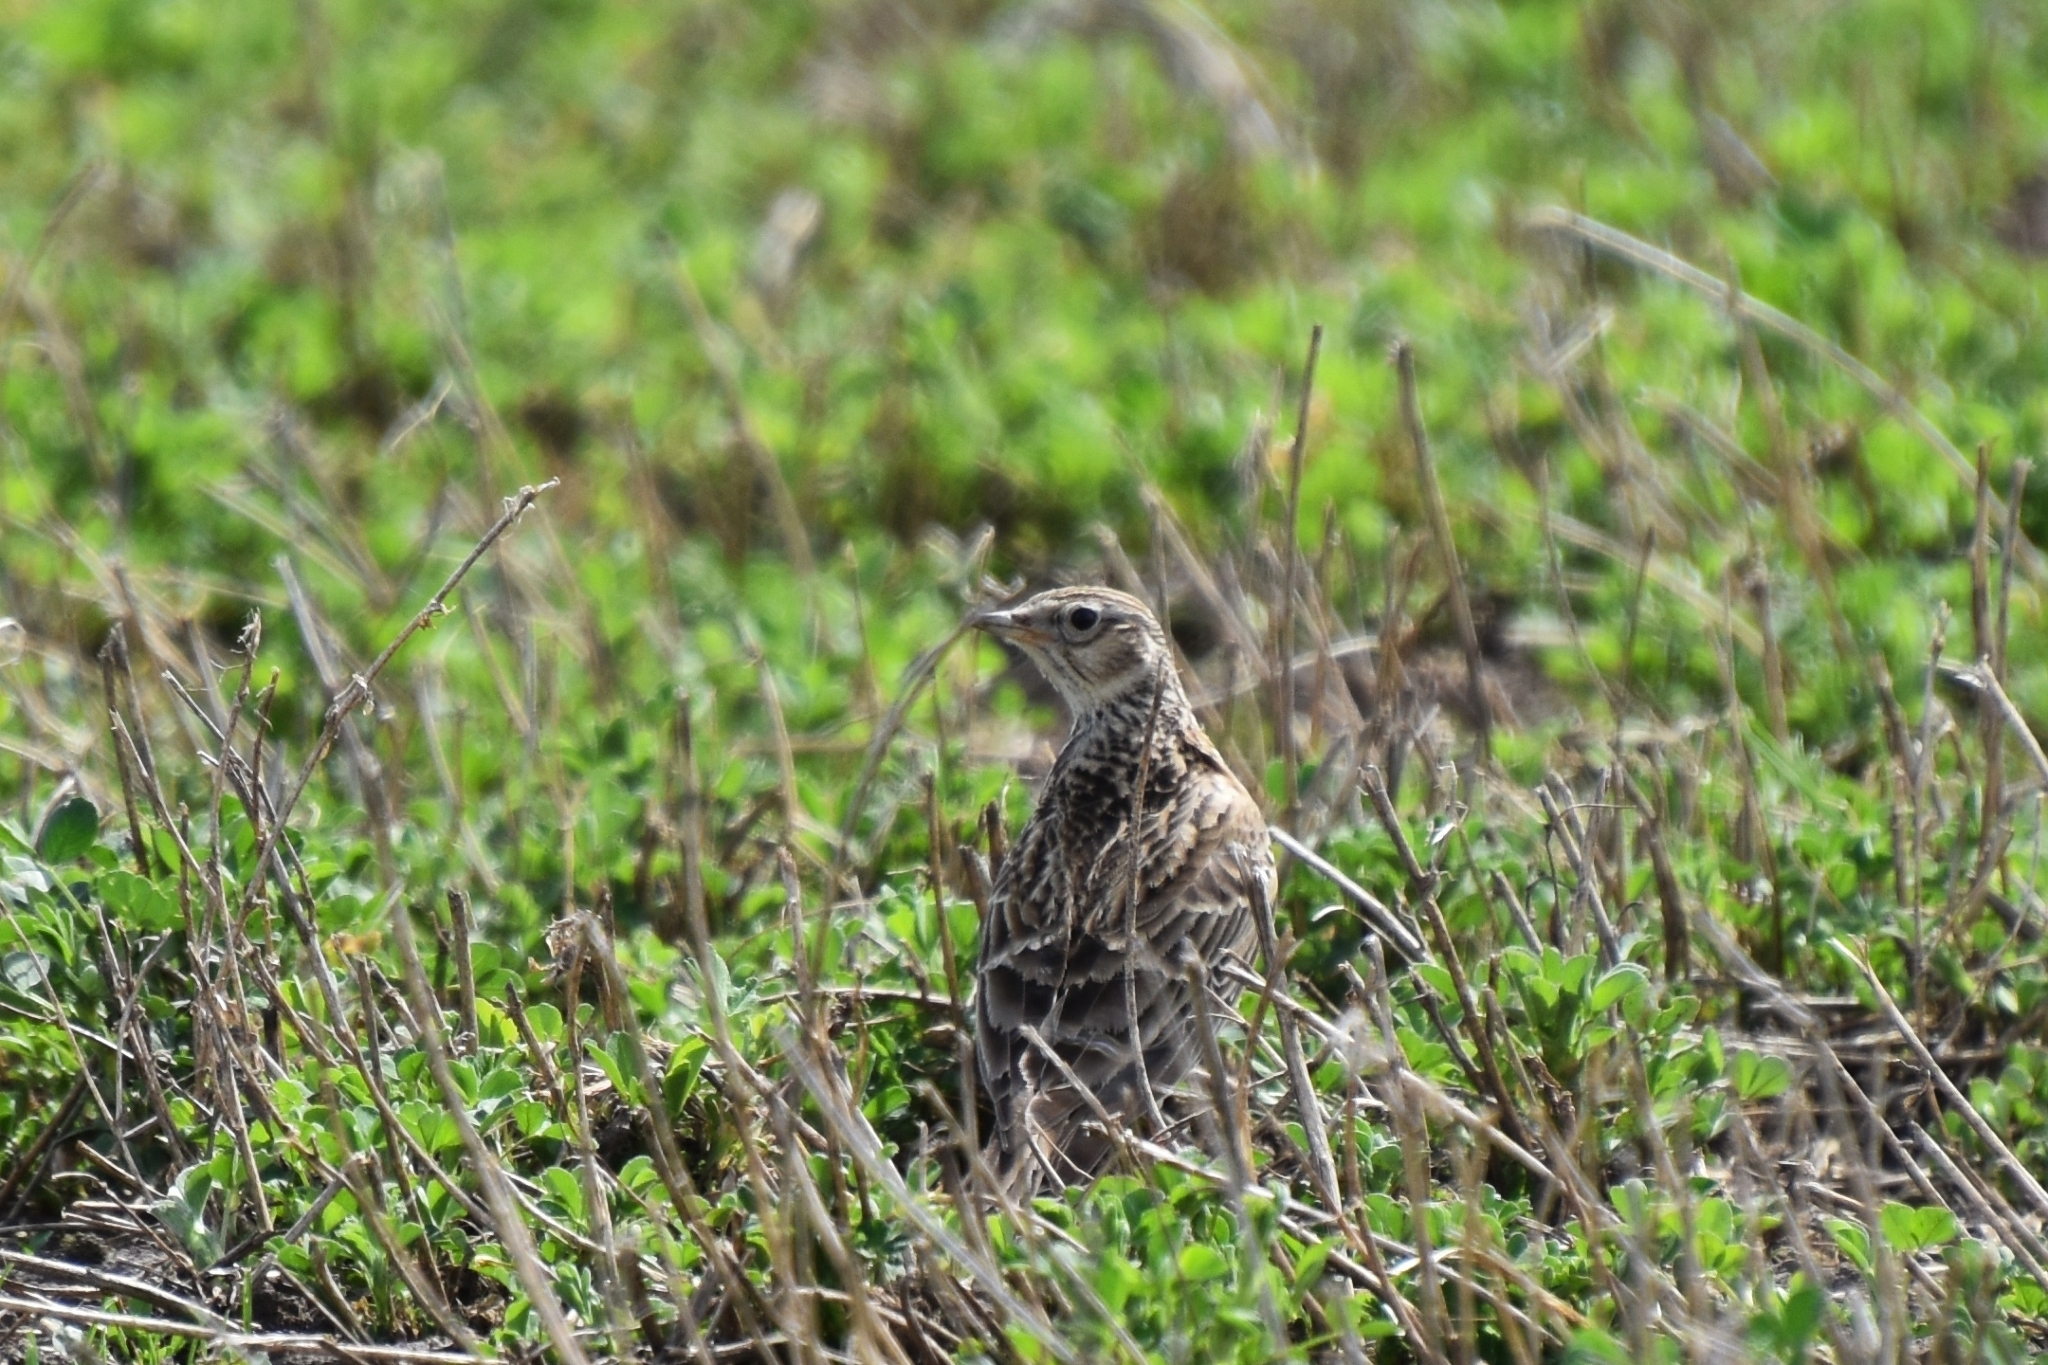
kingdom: Animalia
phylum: Chordata
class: Aves
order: Passeriformes
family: Alaudidae
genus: Alauda
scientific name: Alauda arvensis
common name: Eurasian skylark
